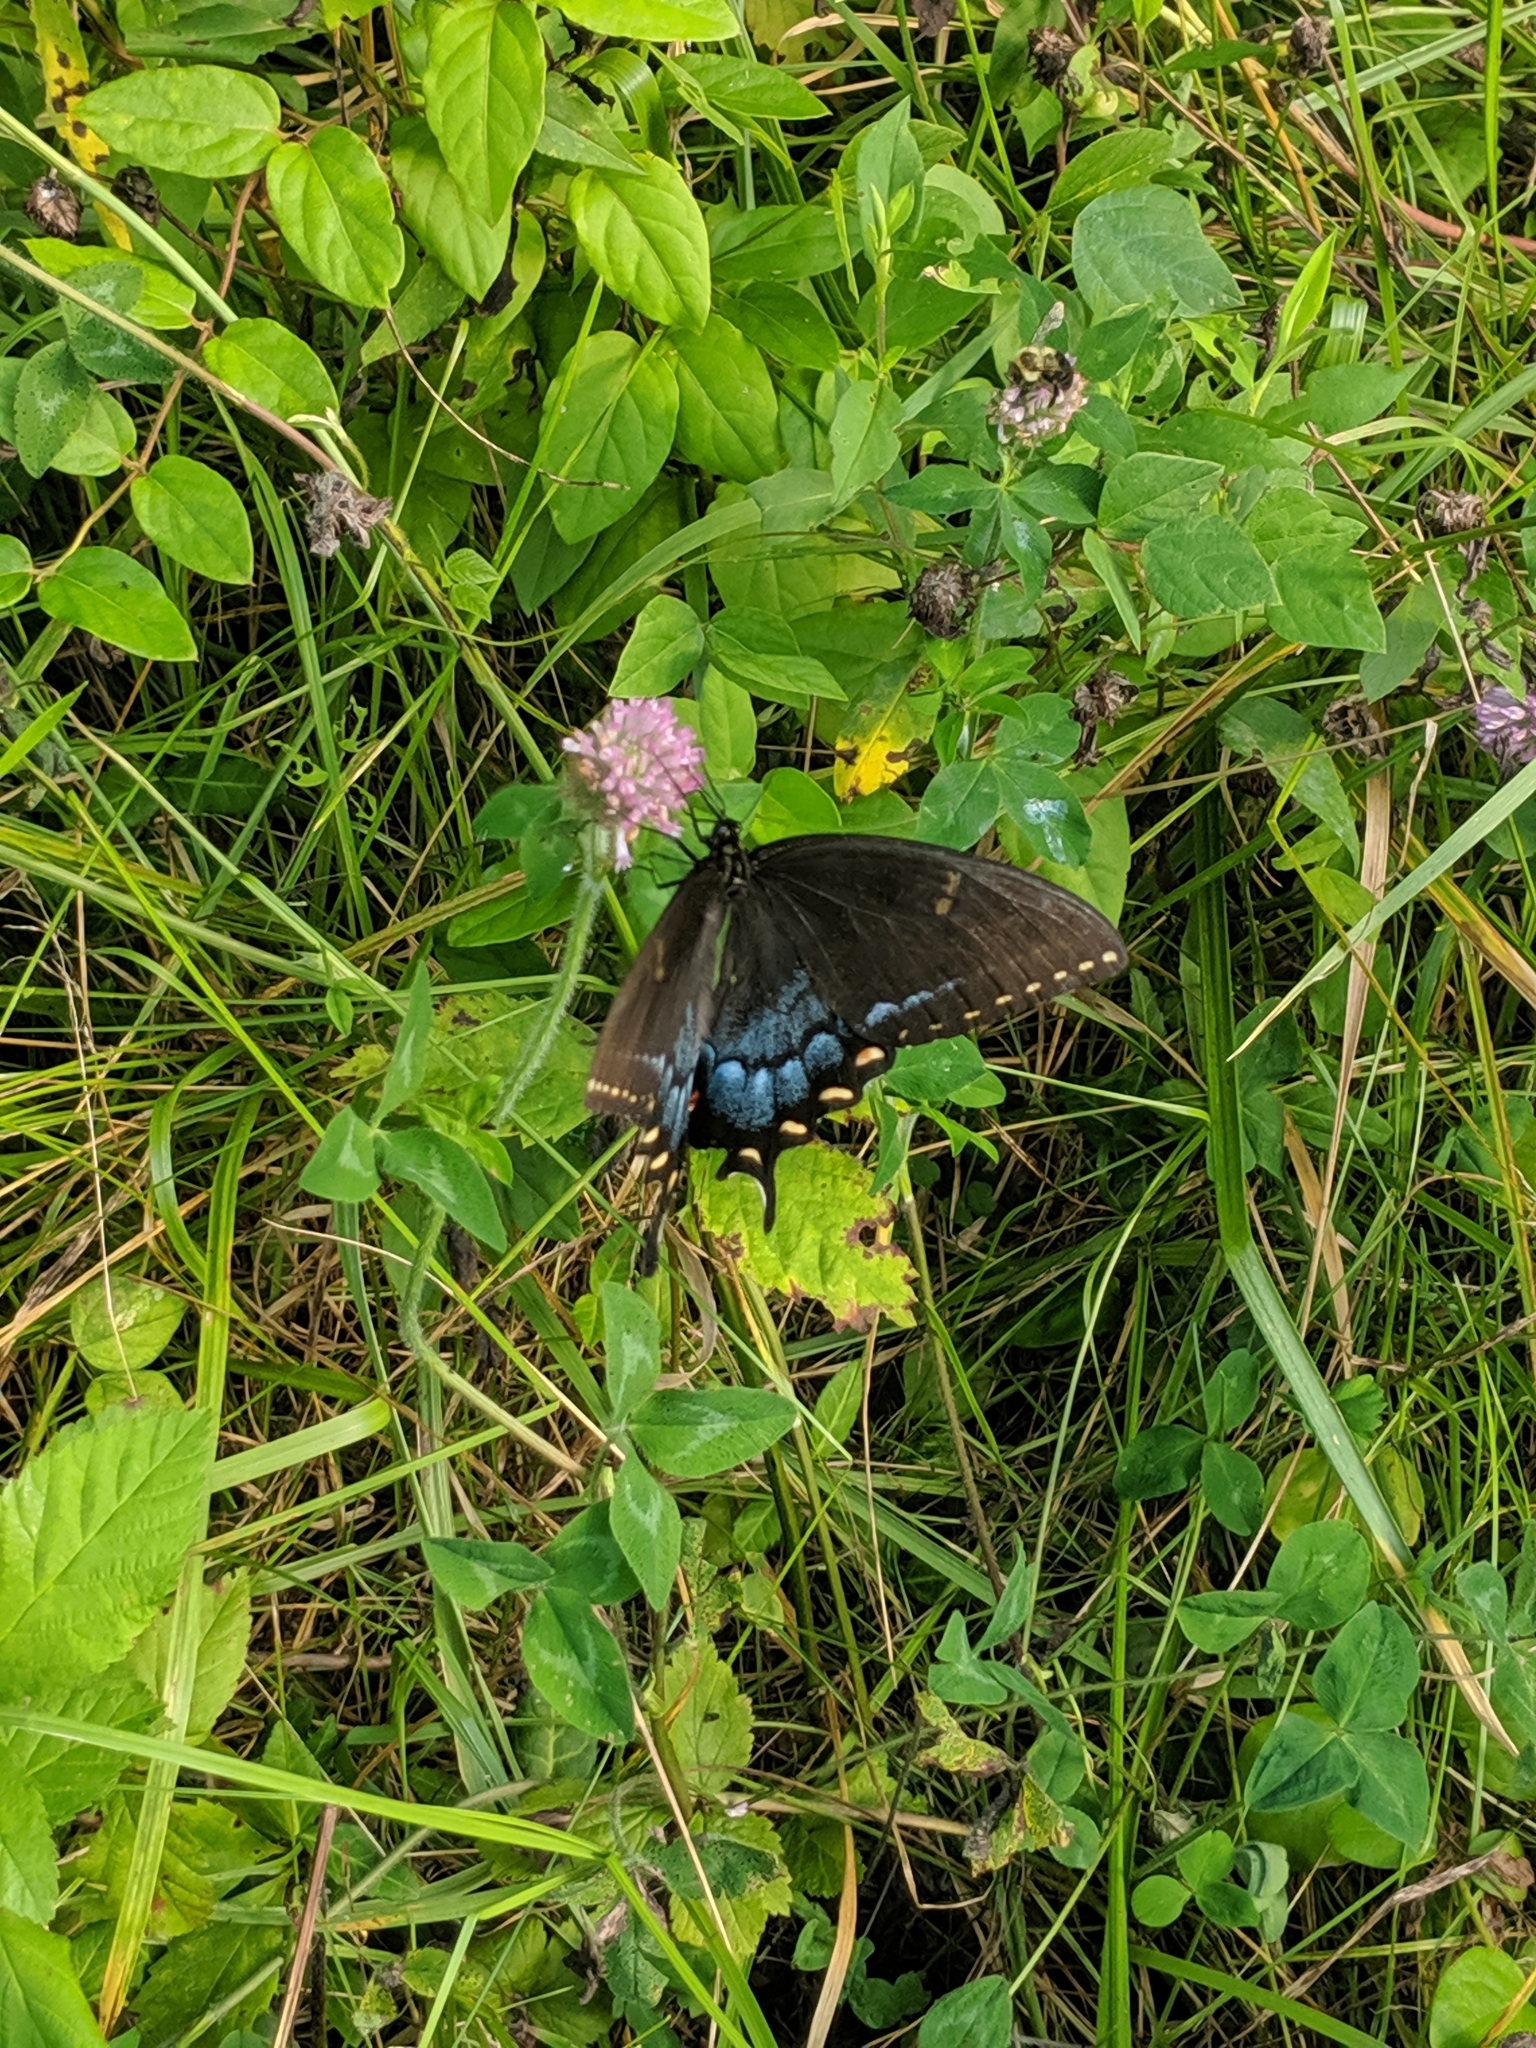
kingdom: Animalia
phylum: Arthropoda
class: Insecta
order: Lepidoptera
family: Papilionidae
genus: Papilio
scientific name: Papilio glaucus
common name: Tiger swallowtail
